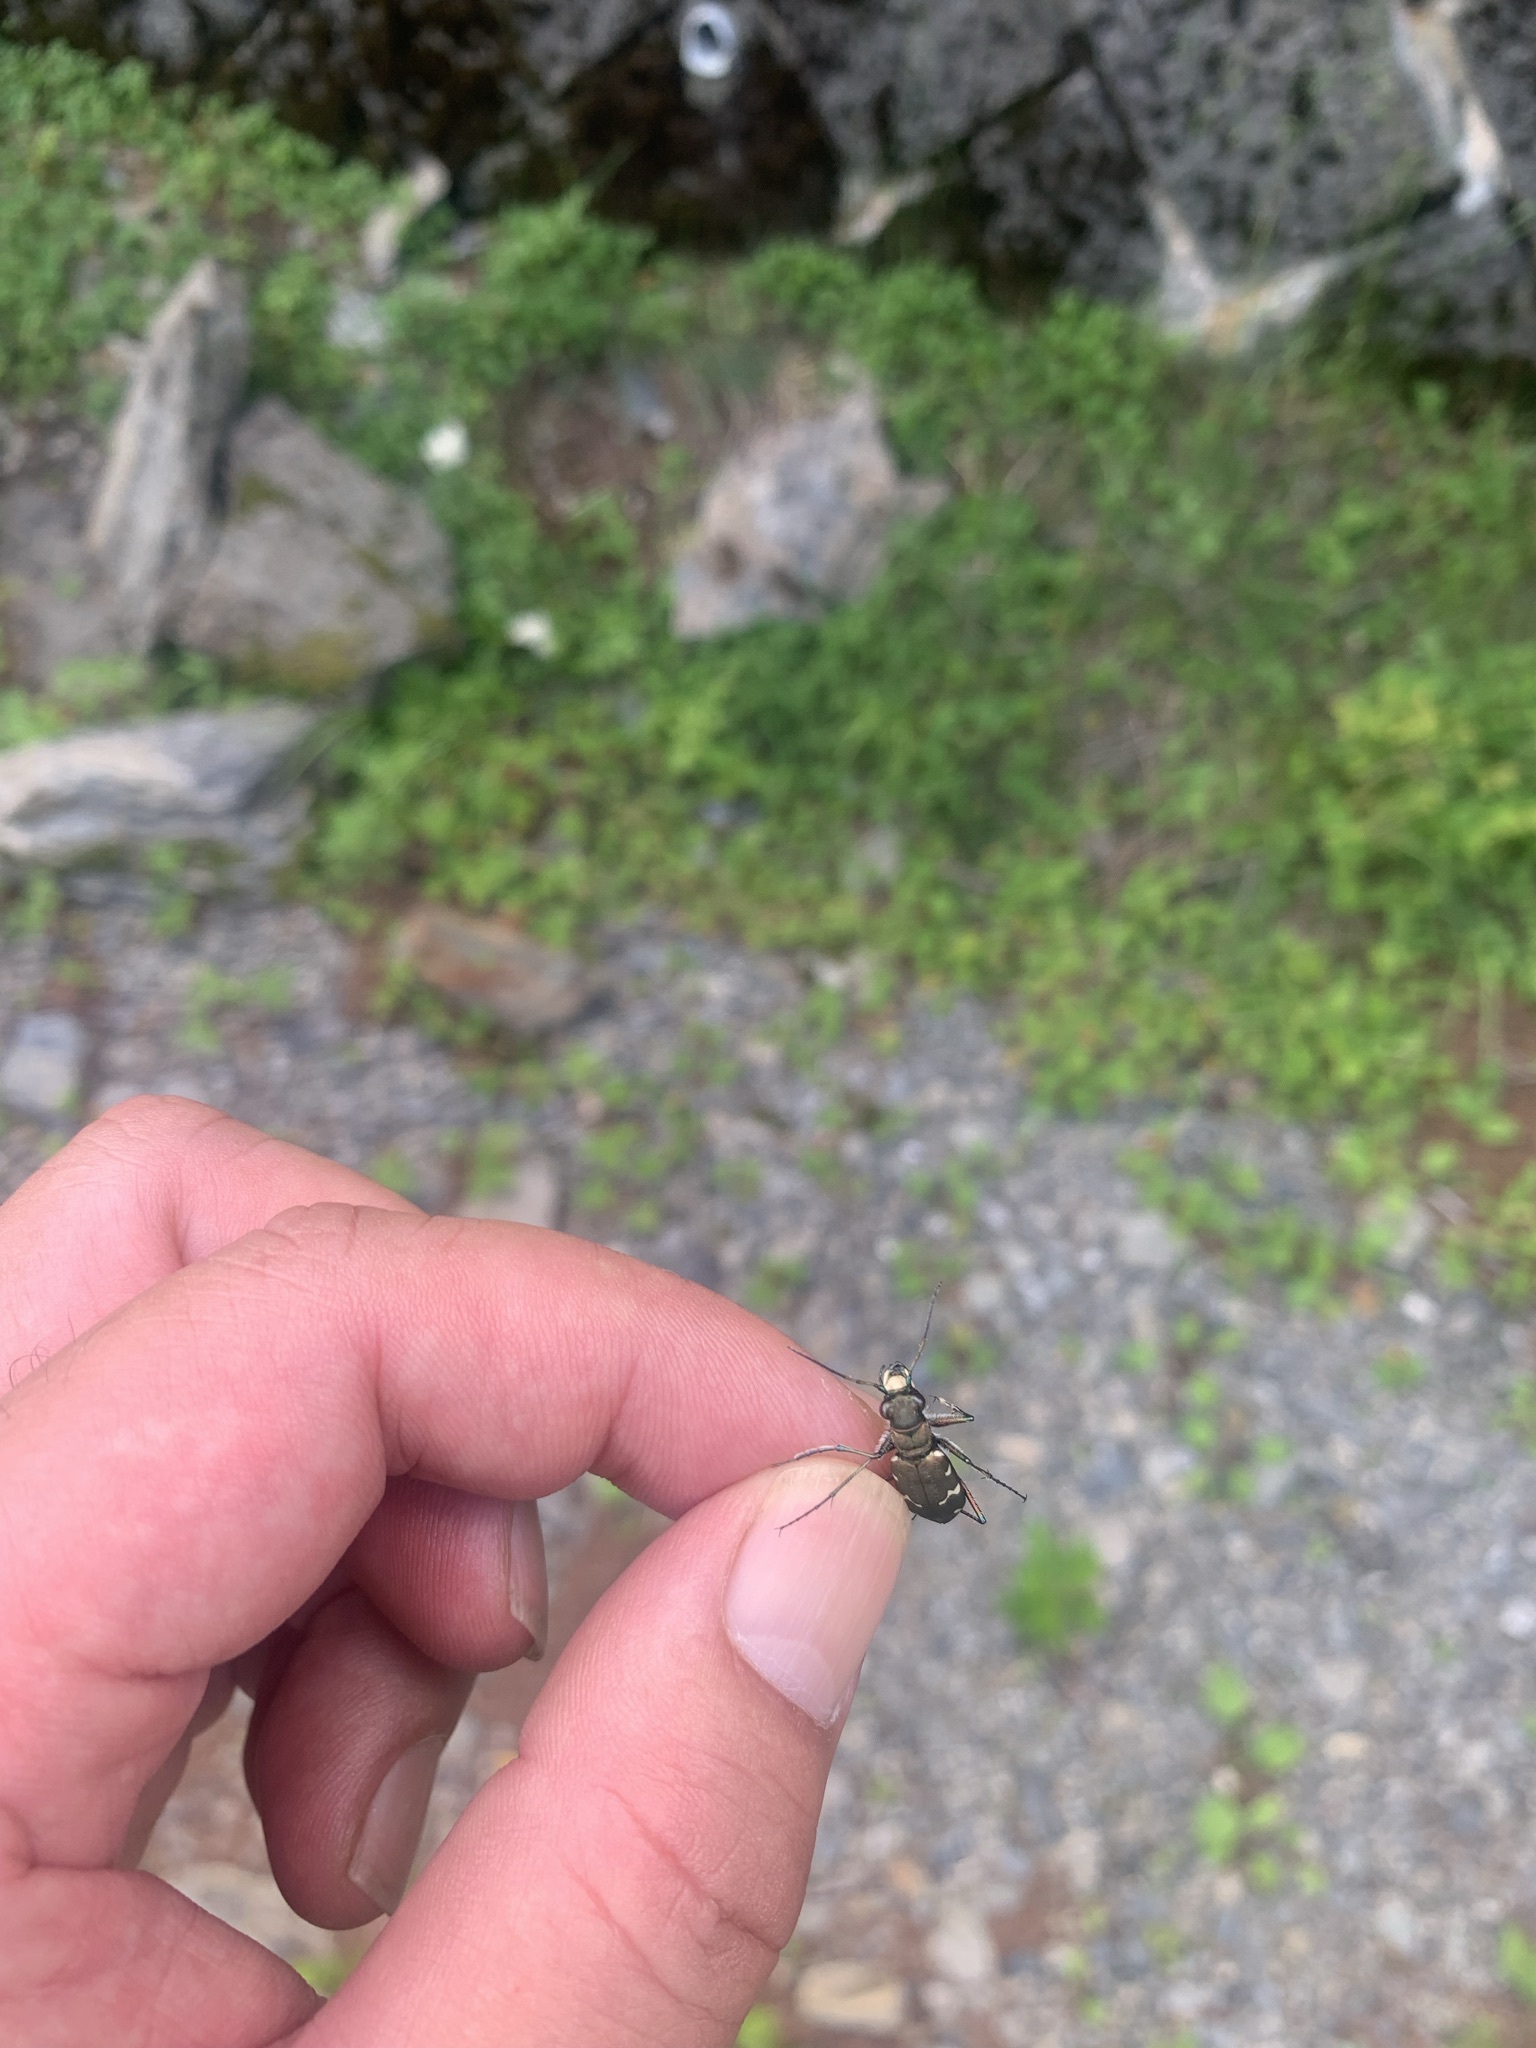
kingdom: Animalia
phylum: Arthropoda
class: Insecta
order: Coleoptera
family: Carabidae
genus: Cicindela
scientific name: Cicindela sachalinensis
